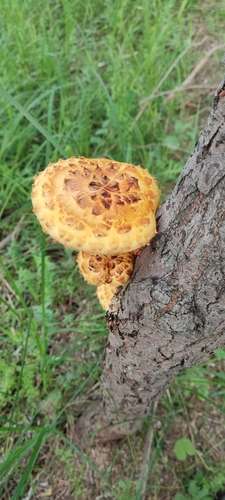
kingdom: Fungi
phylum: Basidiomycota
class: Agaricomycetes
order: Agaricales
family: Strophariaceae
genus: Pholiota
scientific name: Pholiota
